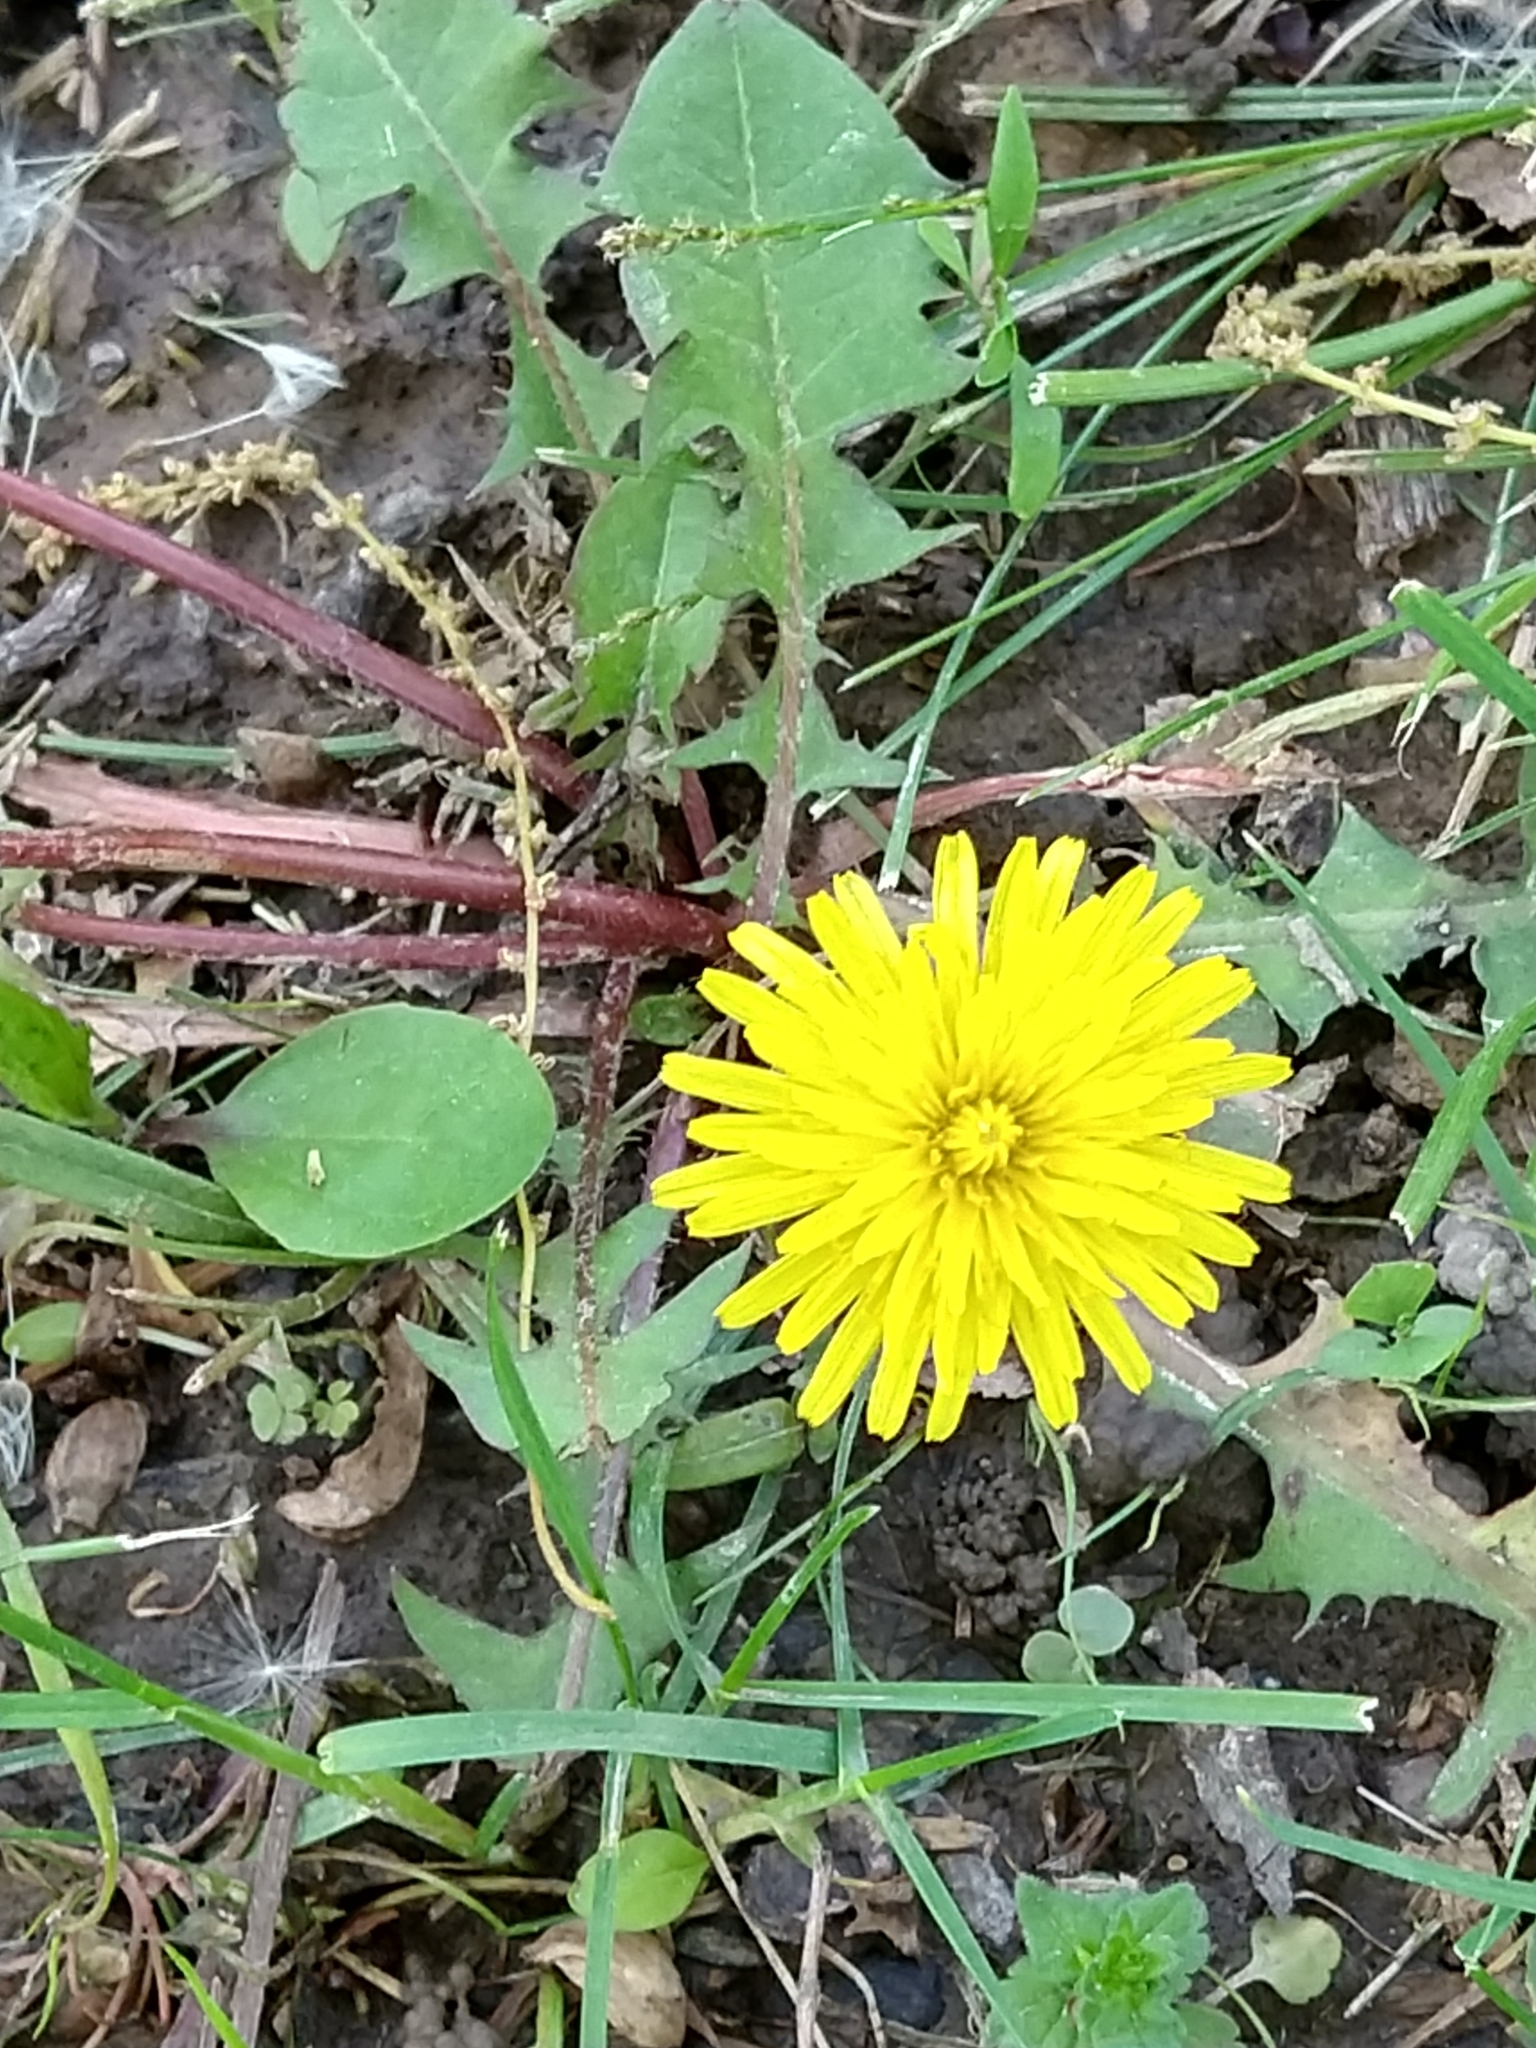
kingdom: Plantae
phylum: Tracheophyta
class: Magnoliopsida
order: Asterales
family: Asteraceae
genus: Taraxacum
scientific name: Taraxacum officinale
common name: Common dandelion
